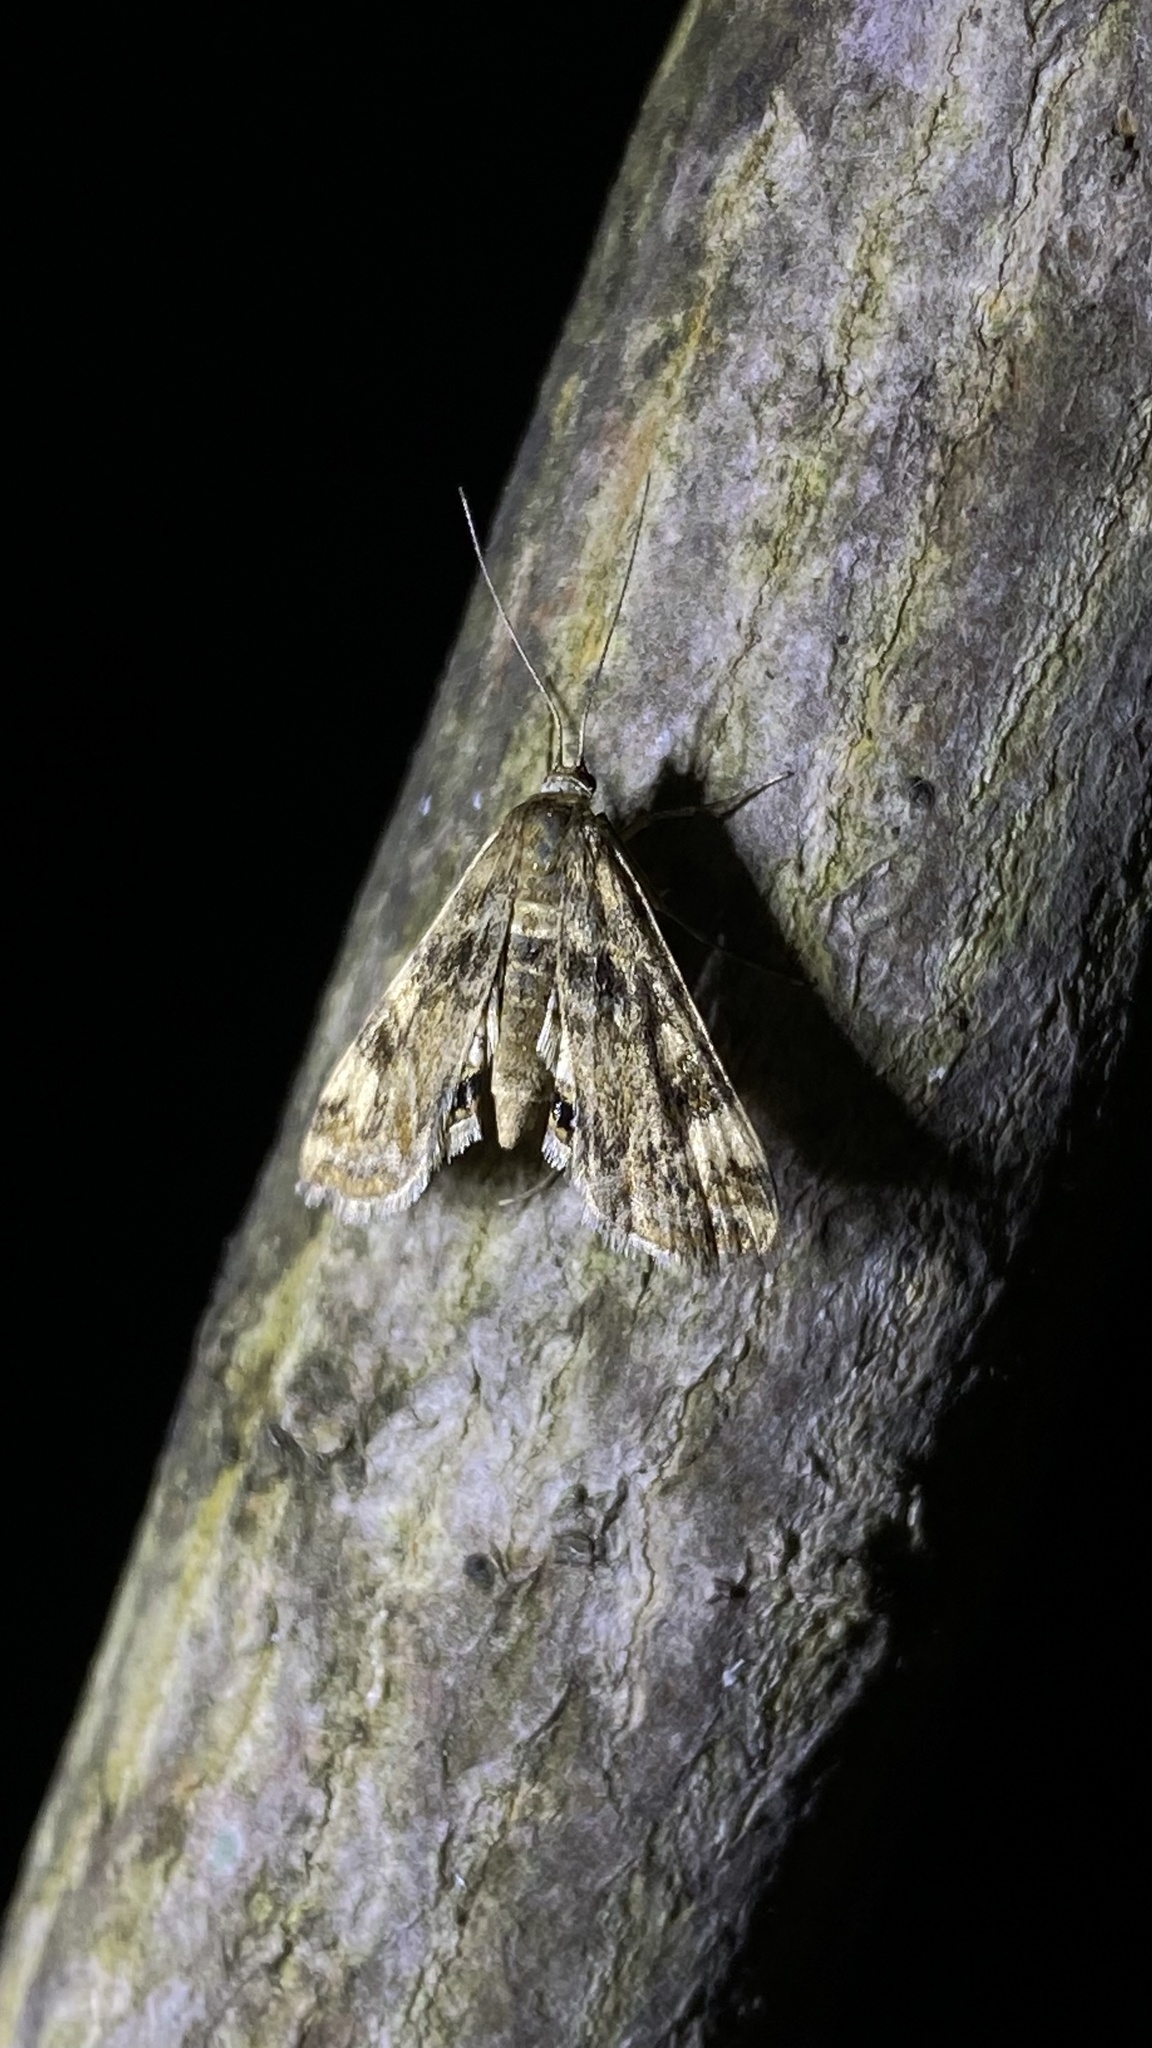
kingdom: Animalia
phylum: Arthropoda
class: Insecta
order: Lepidoptera
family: Crambidae
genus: Cataclysta
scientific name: Cataclysta lemnata
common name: Small china-mark
